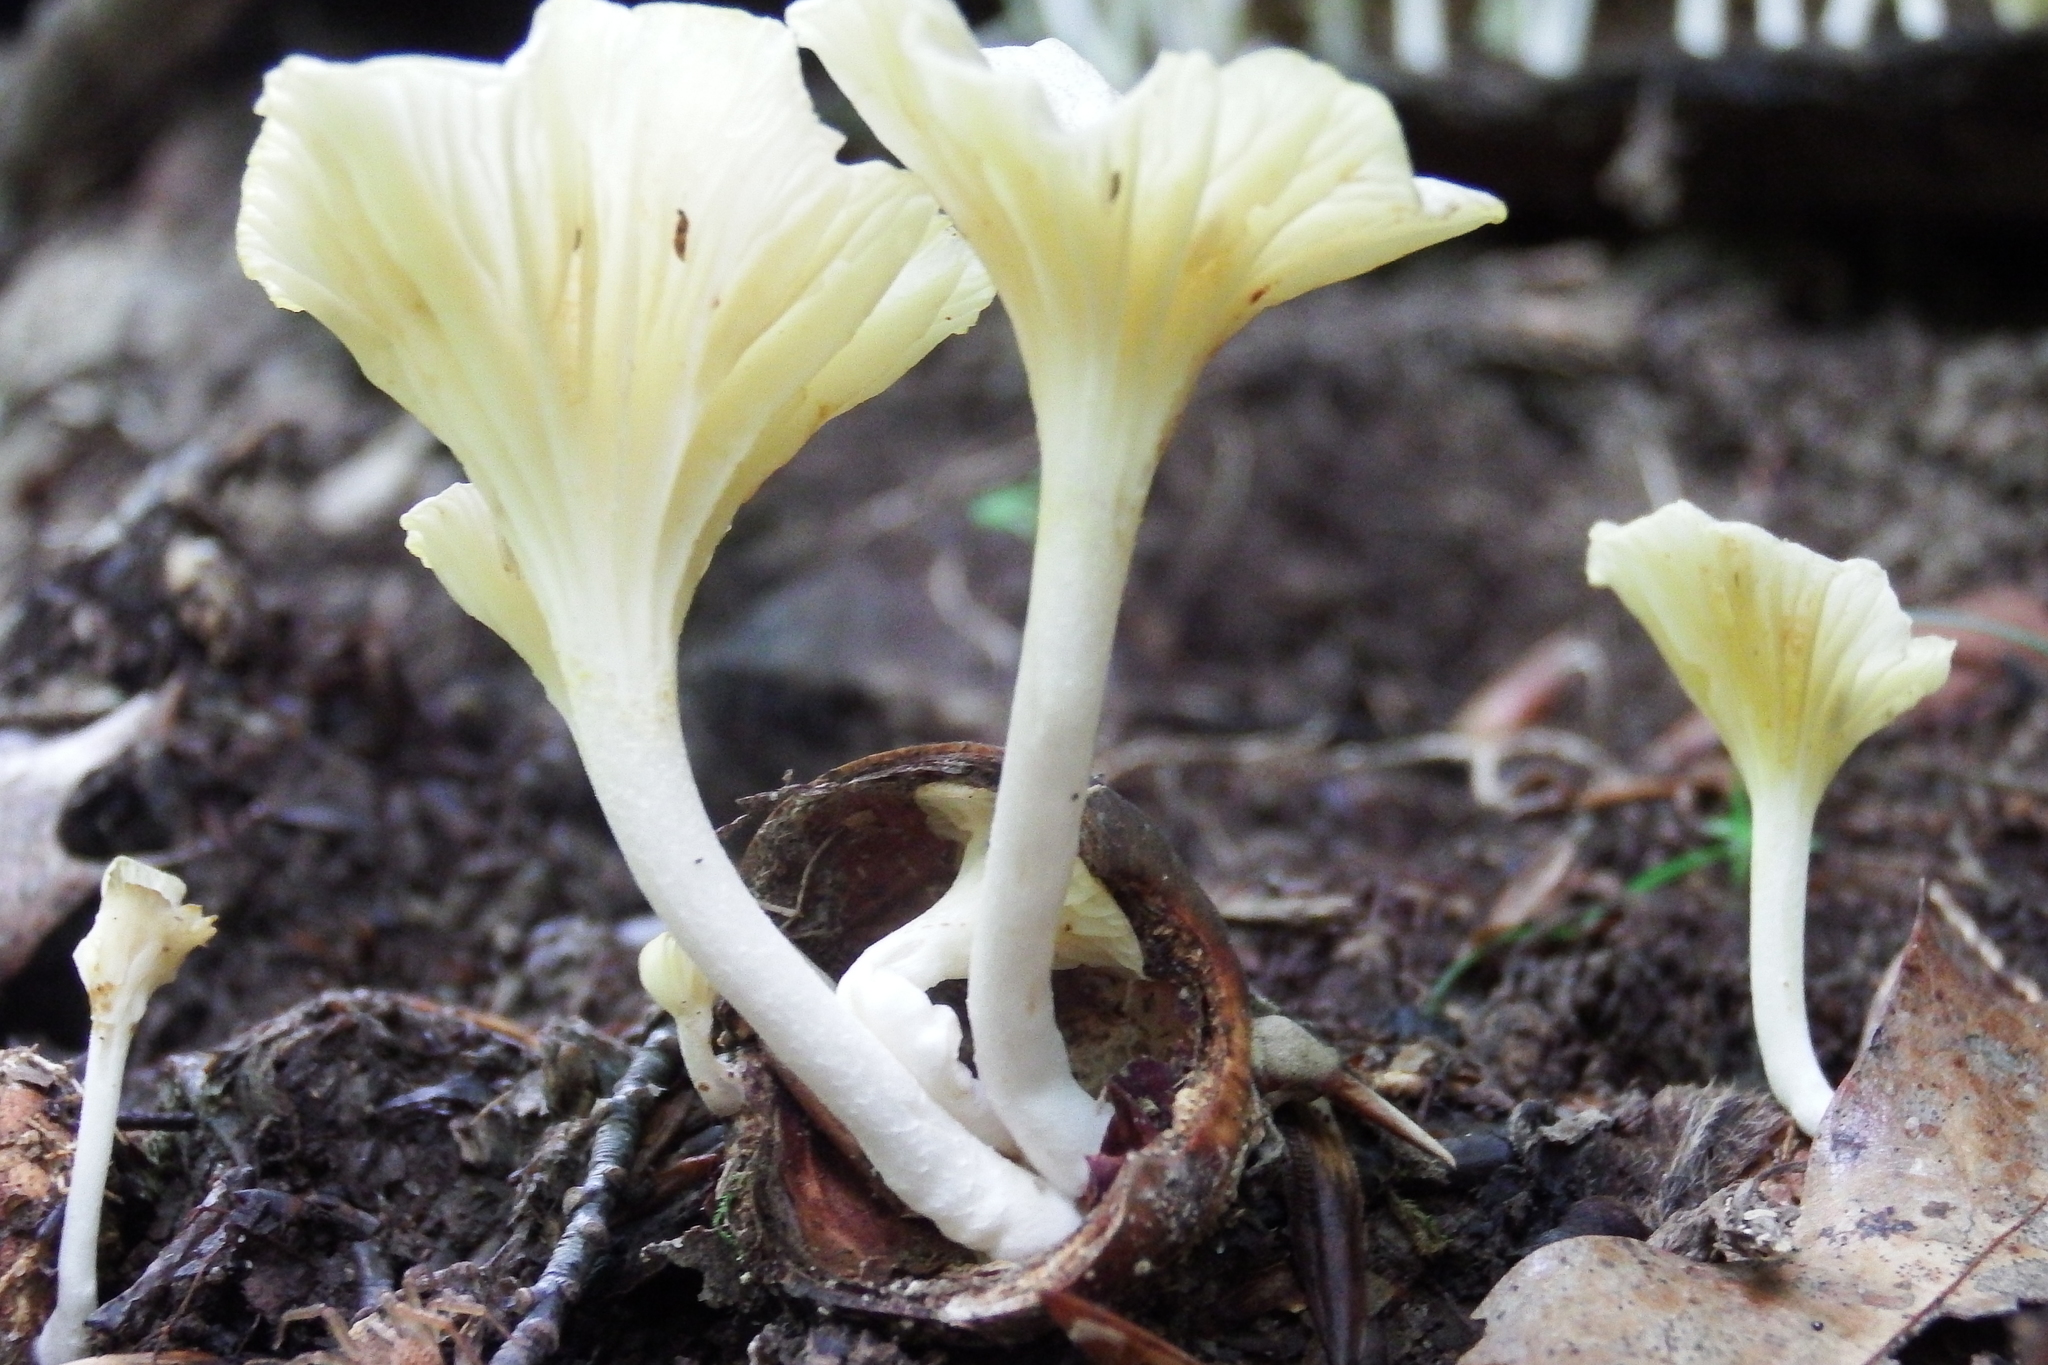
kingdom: Fungi
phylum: Basidiomycota
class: Agaricomycetes
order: Agaricales
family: Marasmiaceae
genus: Gerronema
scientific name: Gerronema strombodes
